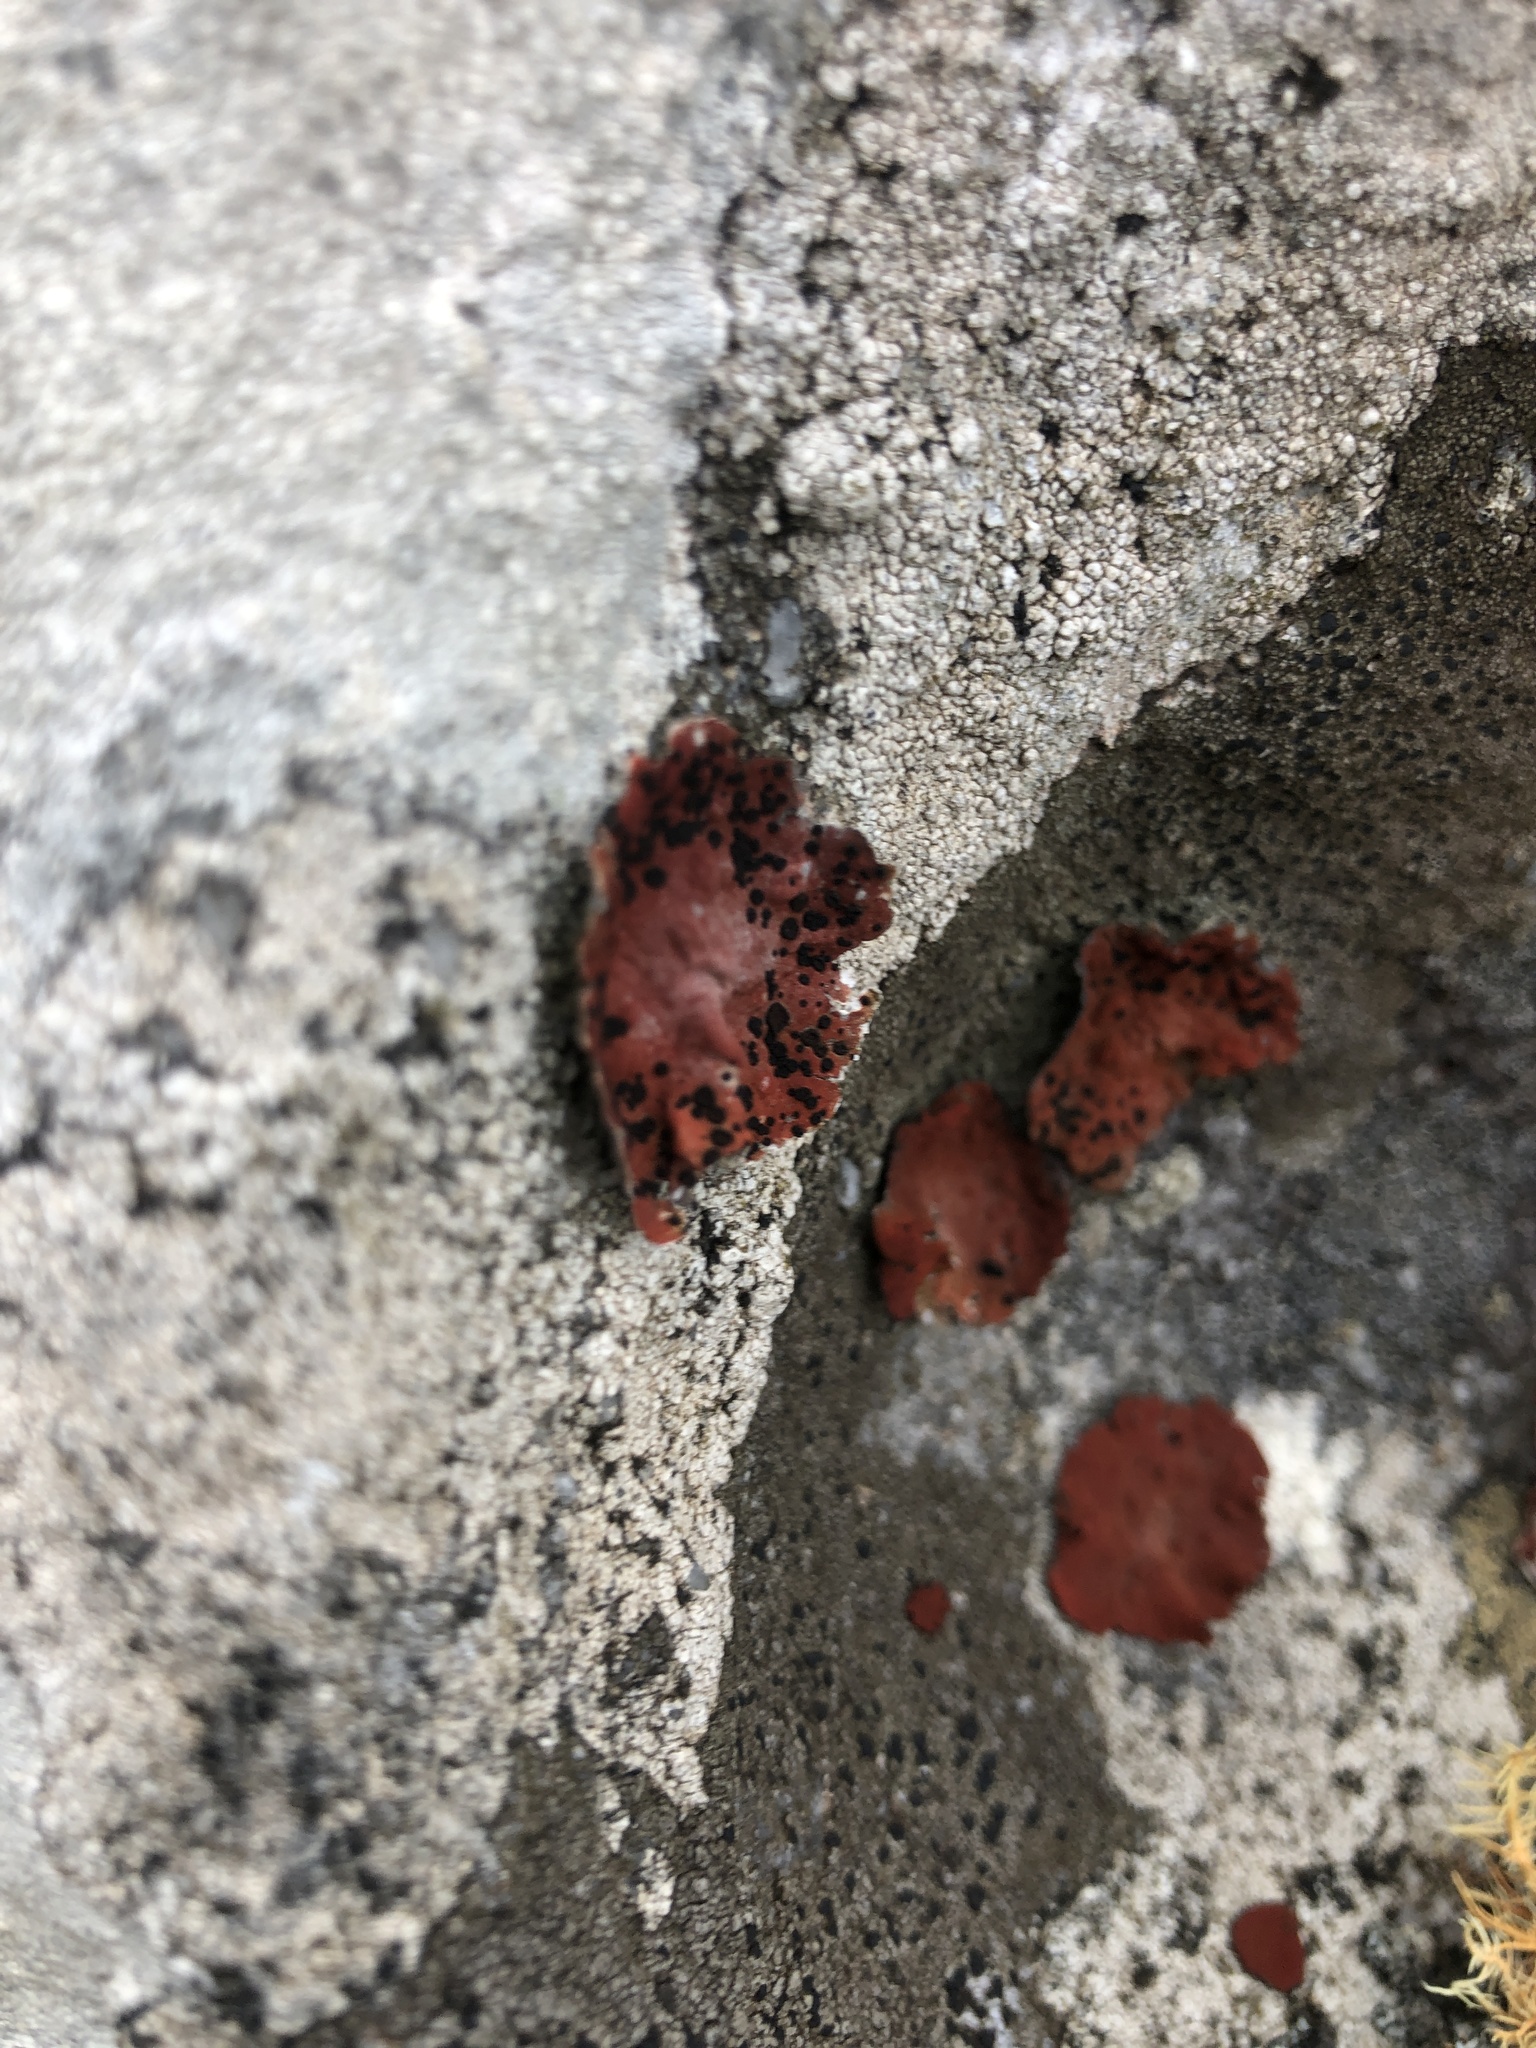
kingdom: Fungi
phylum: Ascomycota
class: Lecanoromycetes
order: Umbilicariales
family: Umbilicariaceae
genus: Lasallia
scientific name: Lasallia rubiginosa
